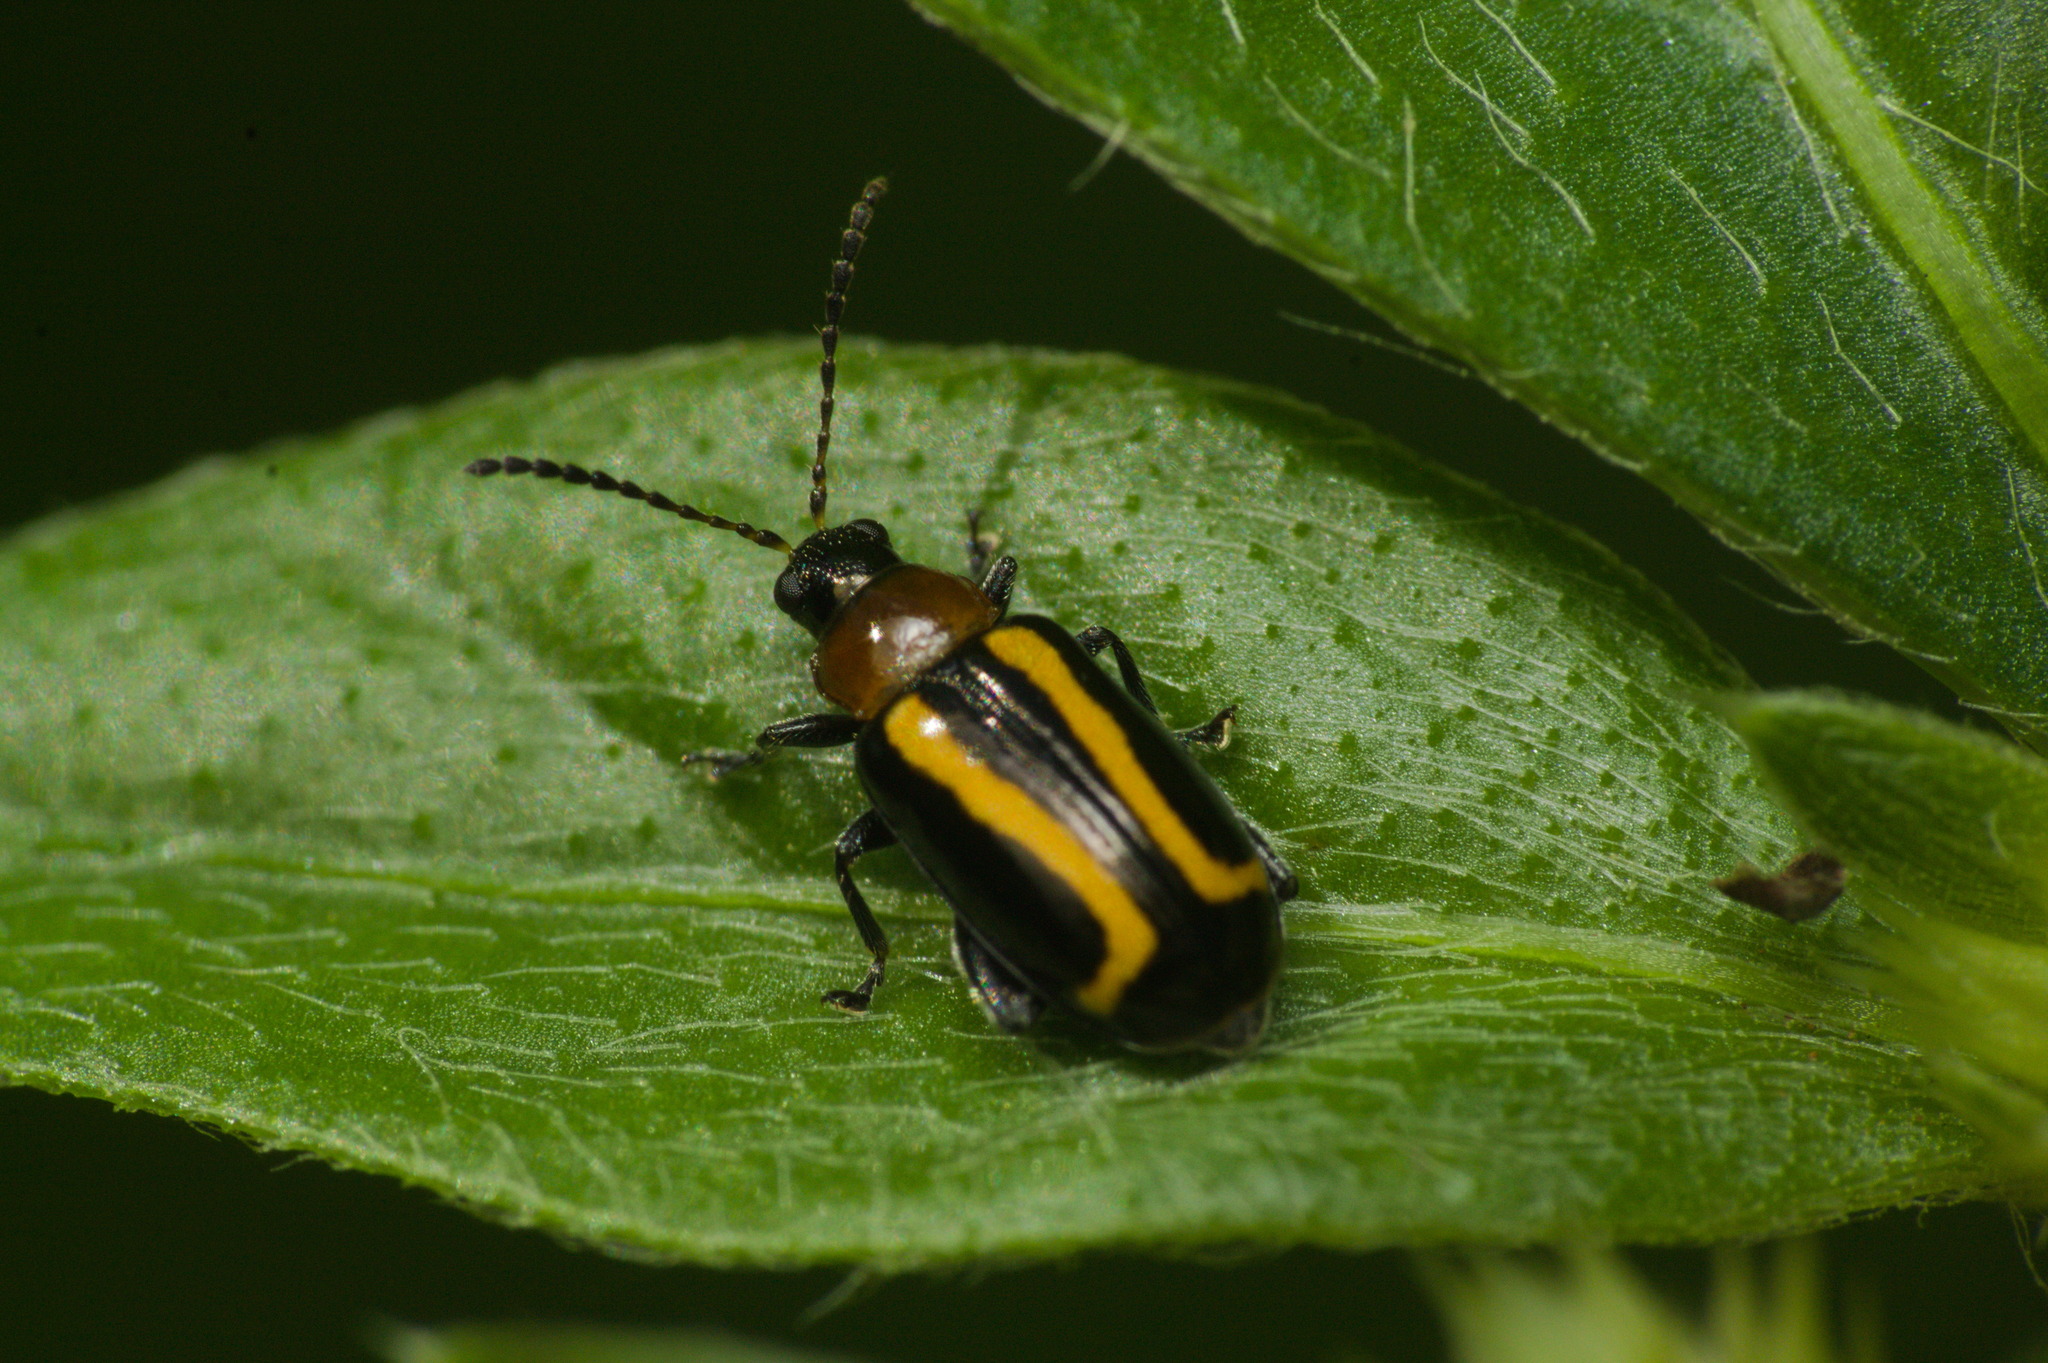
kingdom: Animalia
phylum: Arthropoda
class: Insecta
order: Coleoptera
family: Chrysomelidae
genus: Systena
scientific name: Systena
